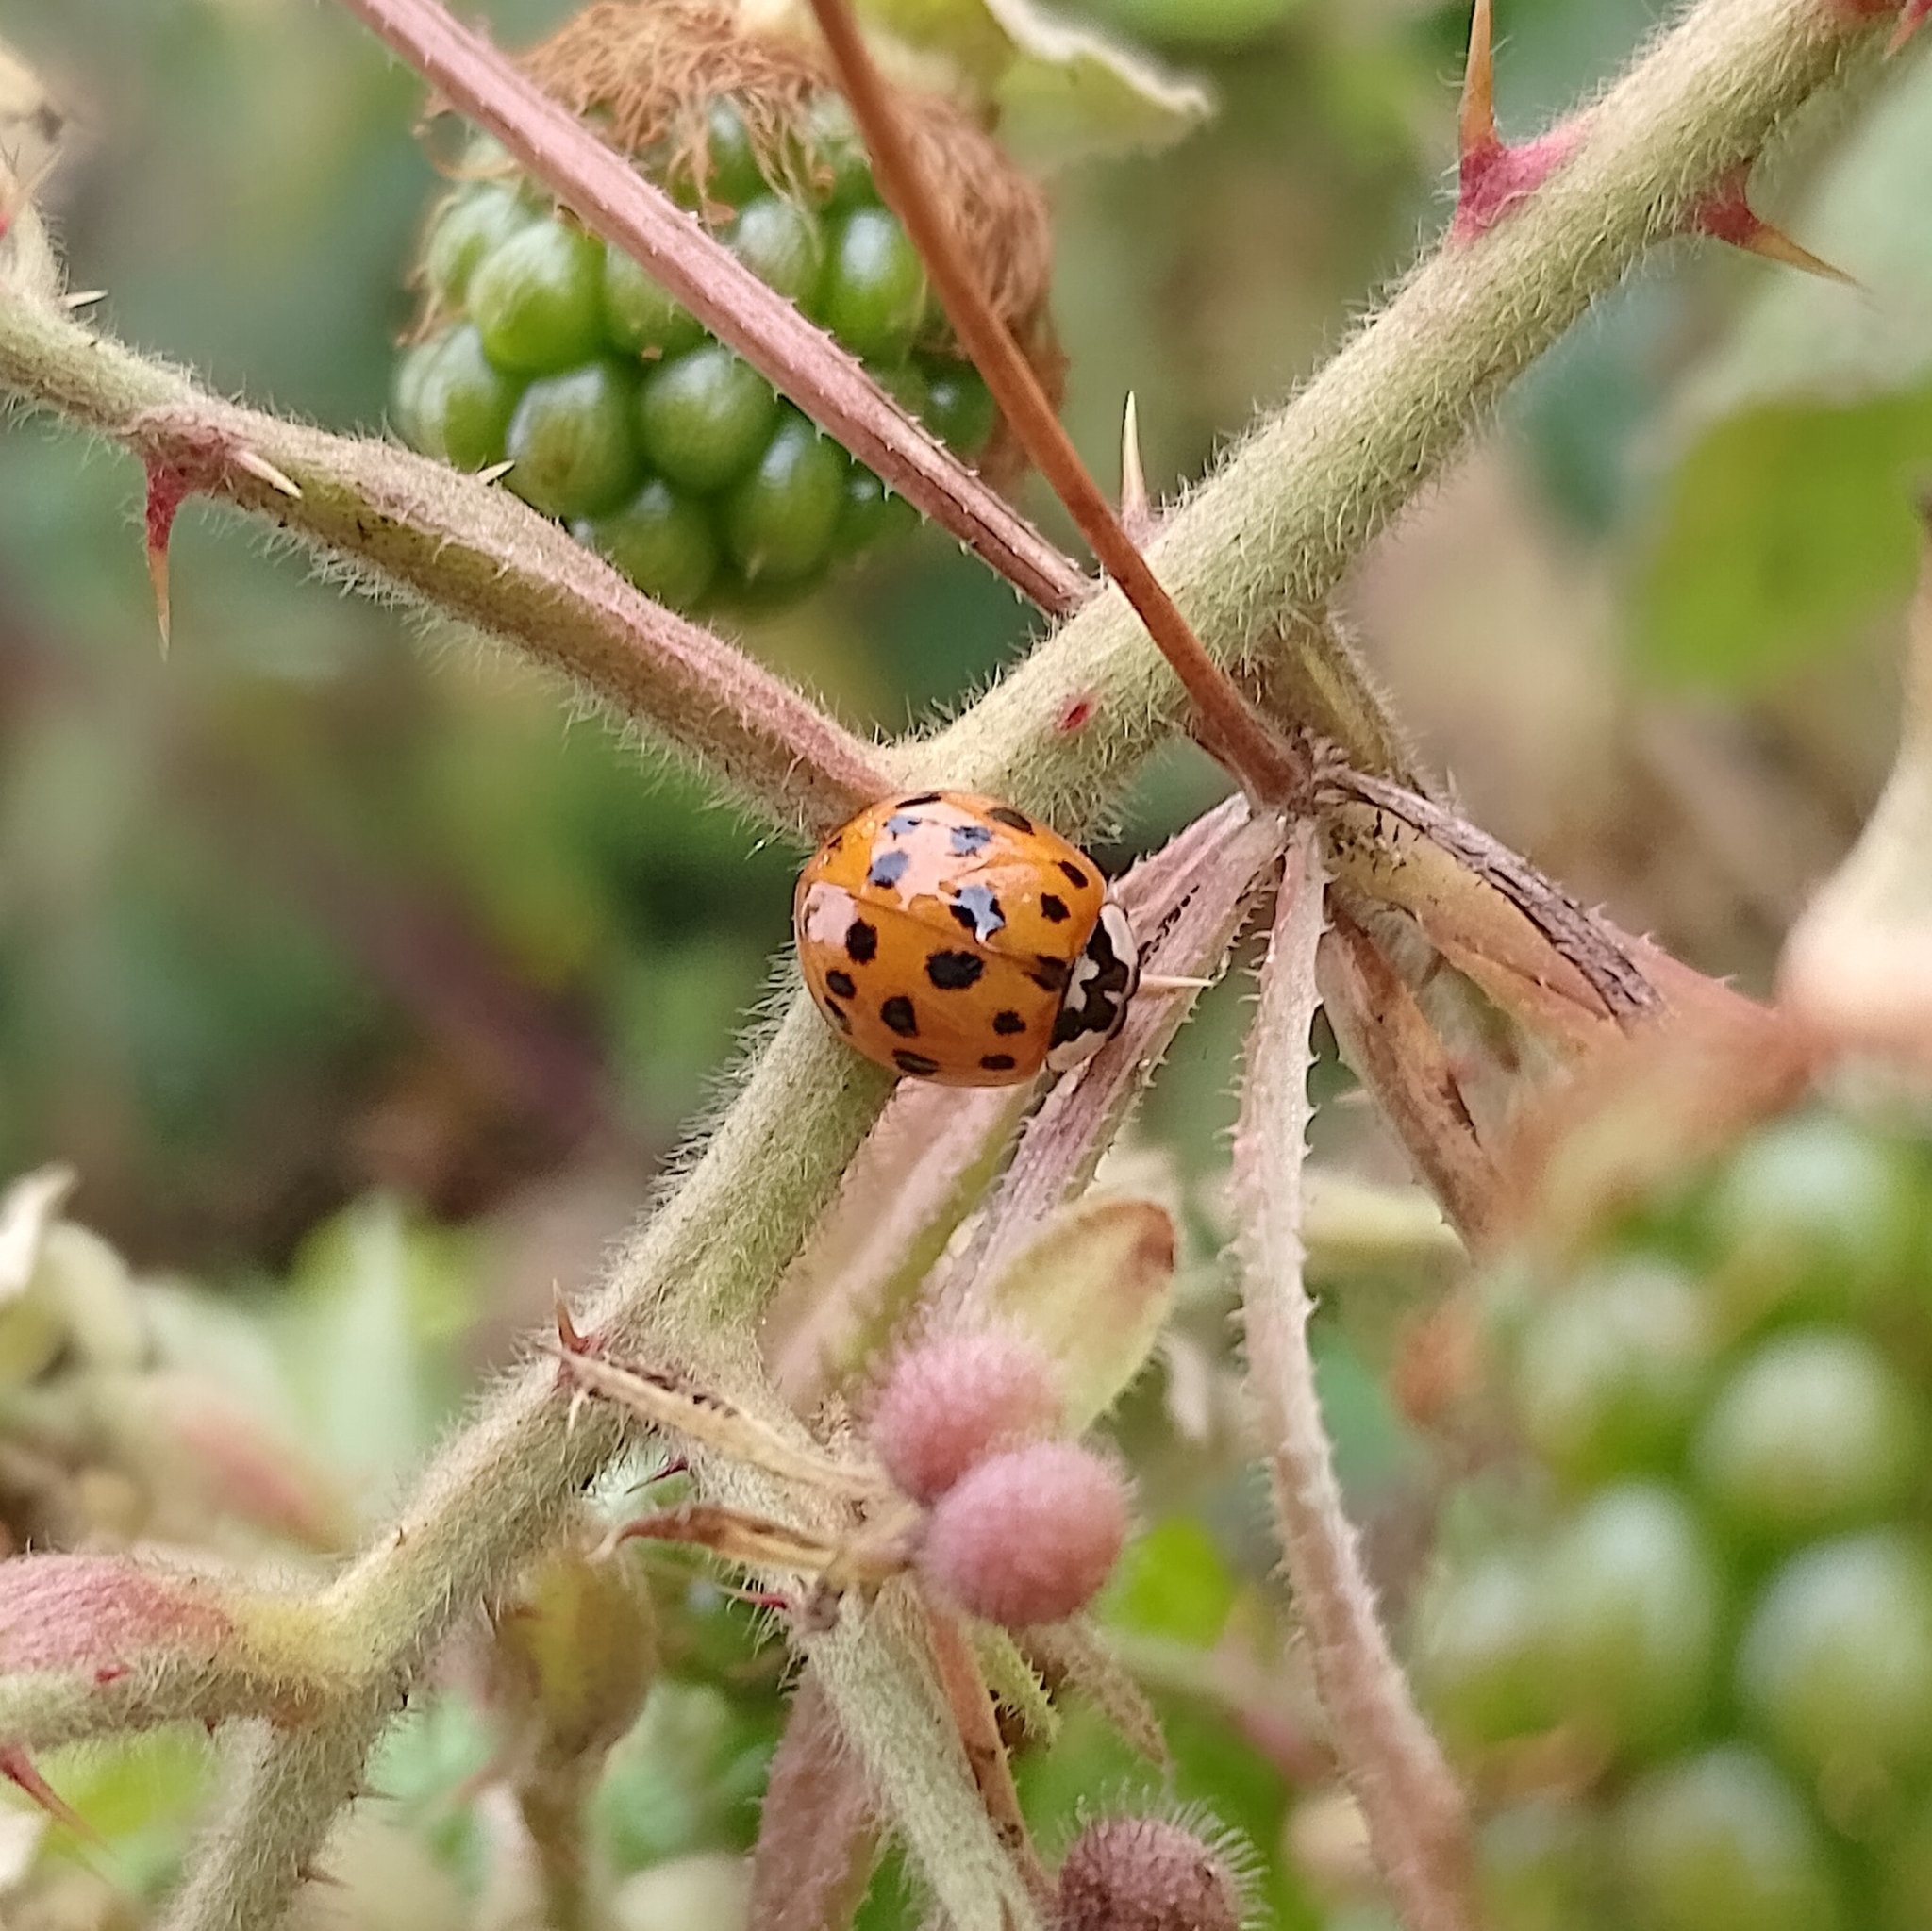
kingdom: Animalia
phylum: Arthropoda
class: Insecta
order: Coleoptera
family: Coccinellidae
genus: Harmonia
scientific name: Harmonia axyridis
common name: Harlequin ladybird
